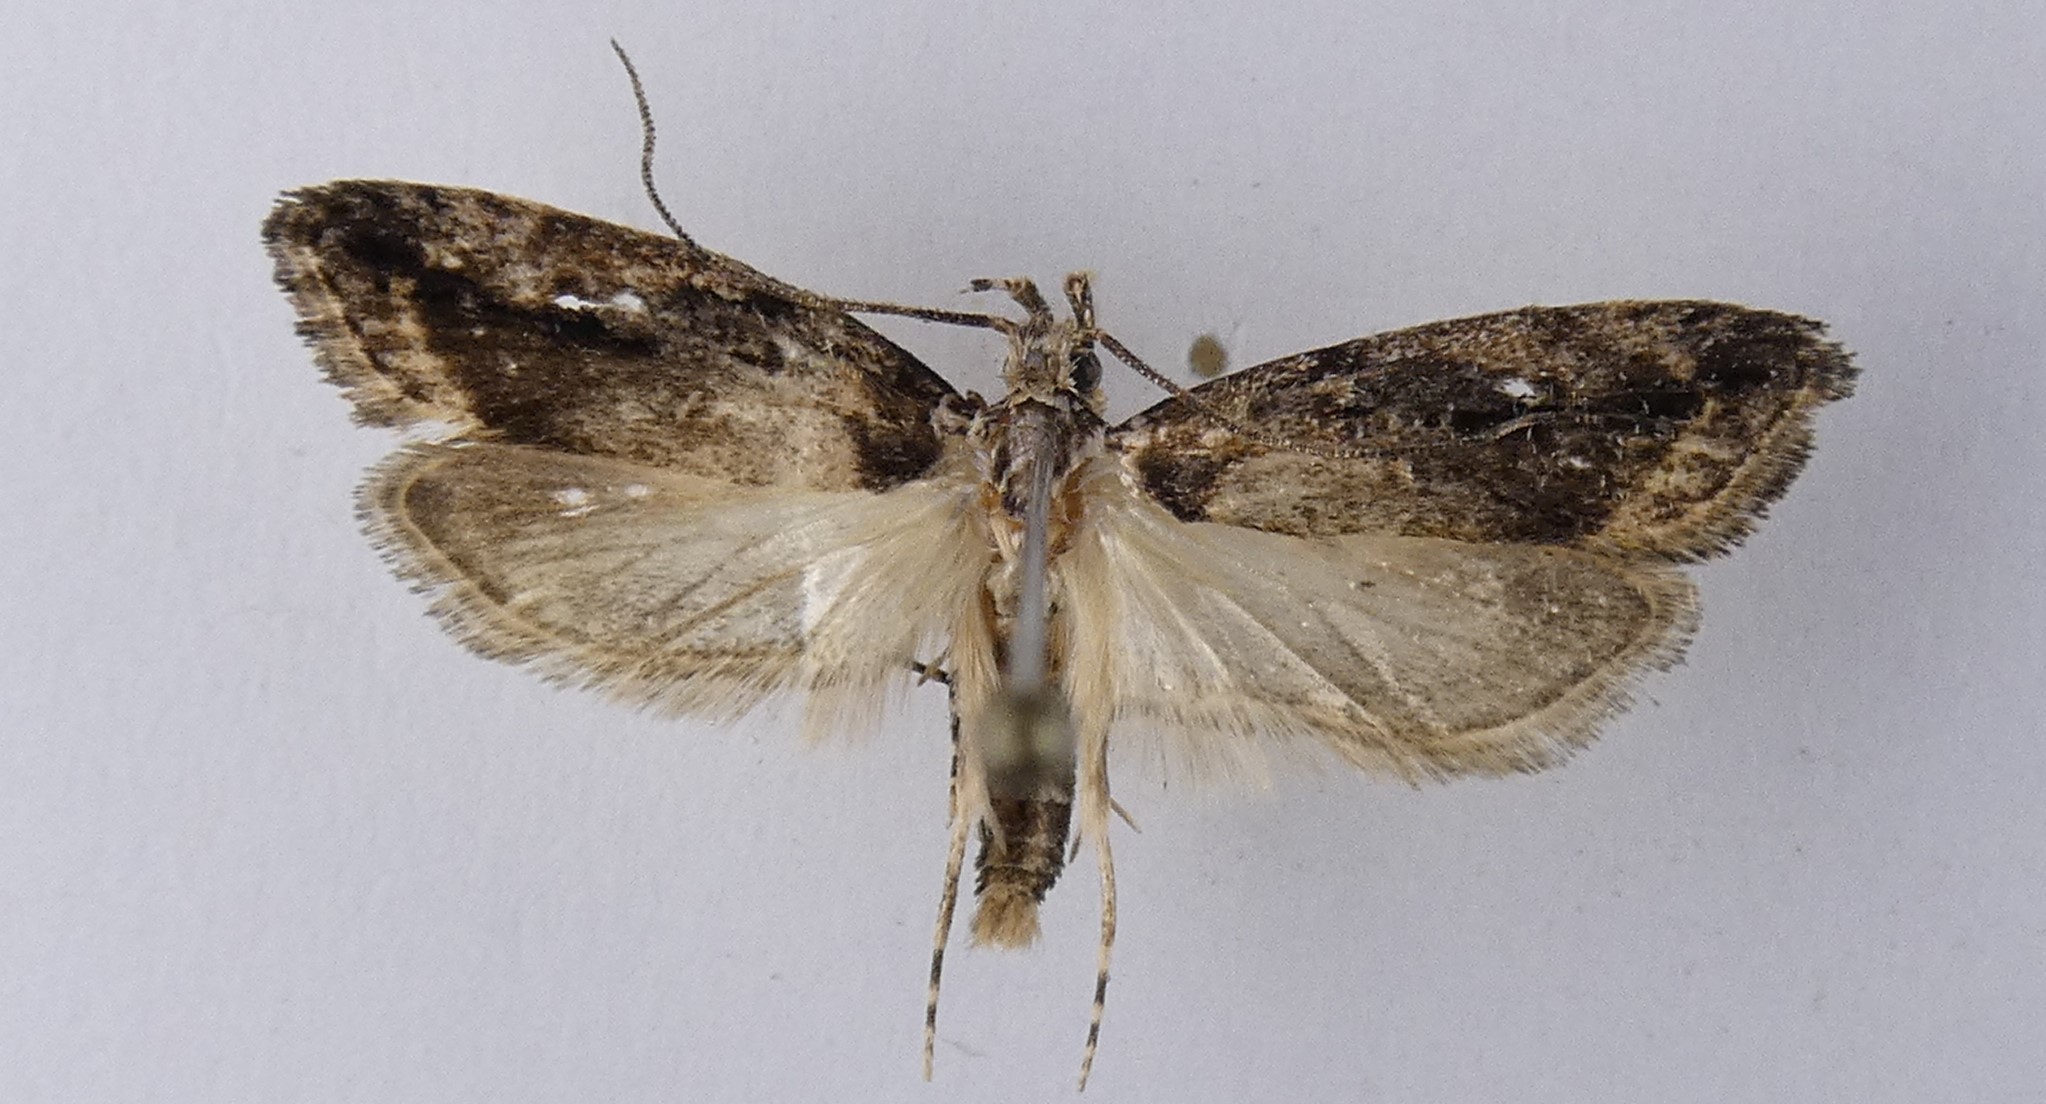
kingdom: Animalia
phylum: Arthropoda
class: Insecta
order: Lepidoptera
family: Oecophoridae
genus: Izatha
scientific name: Izatha caustopa
